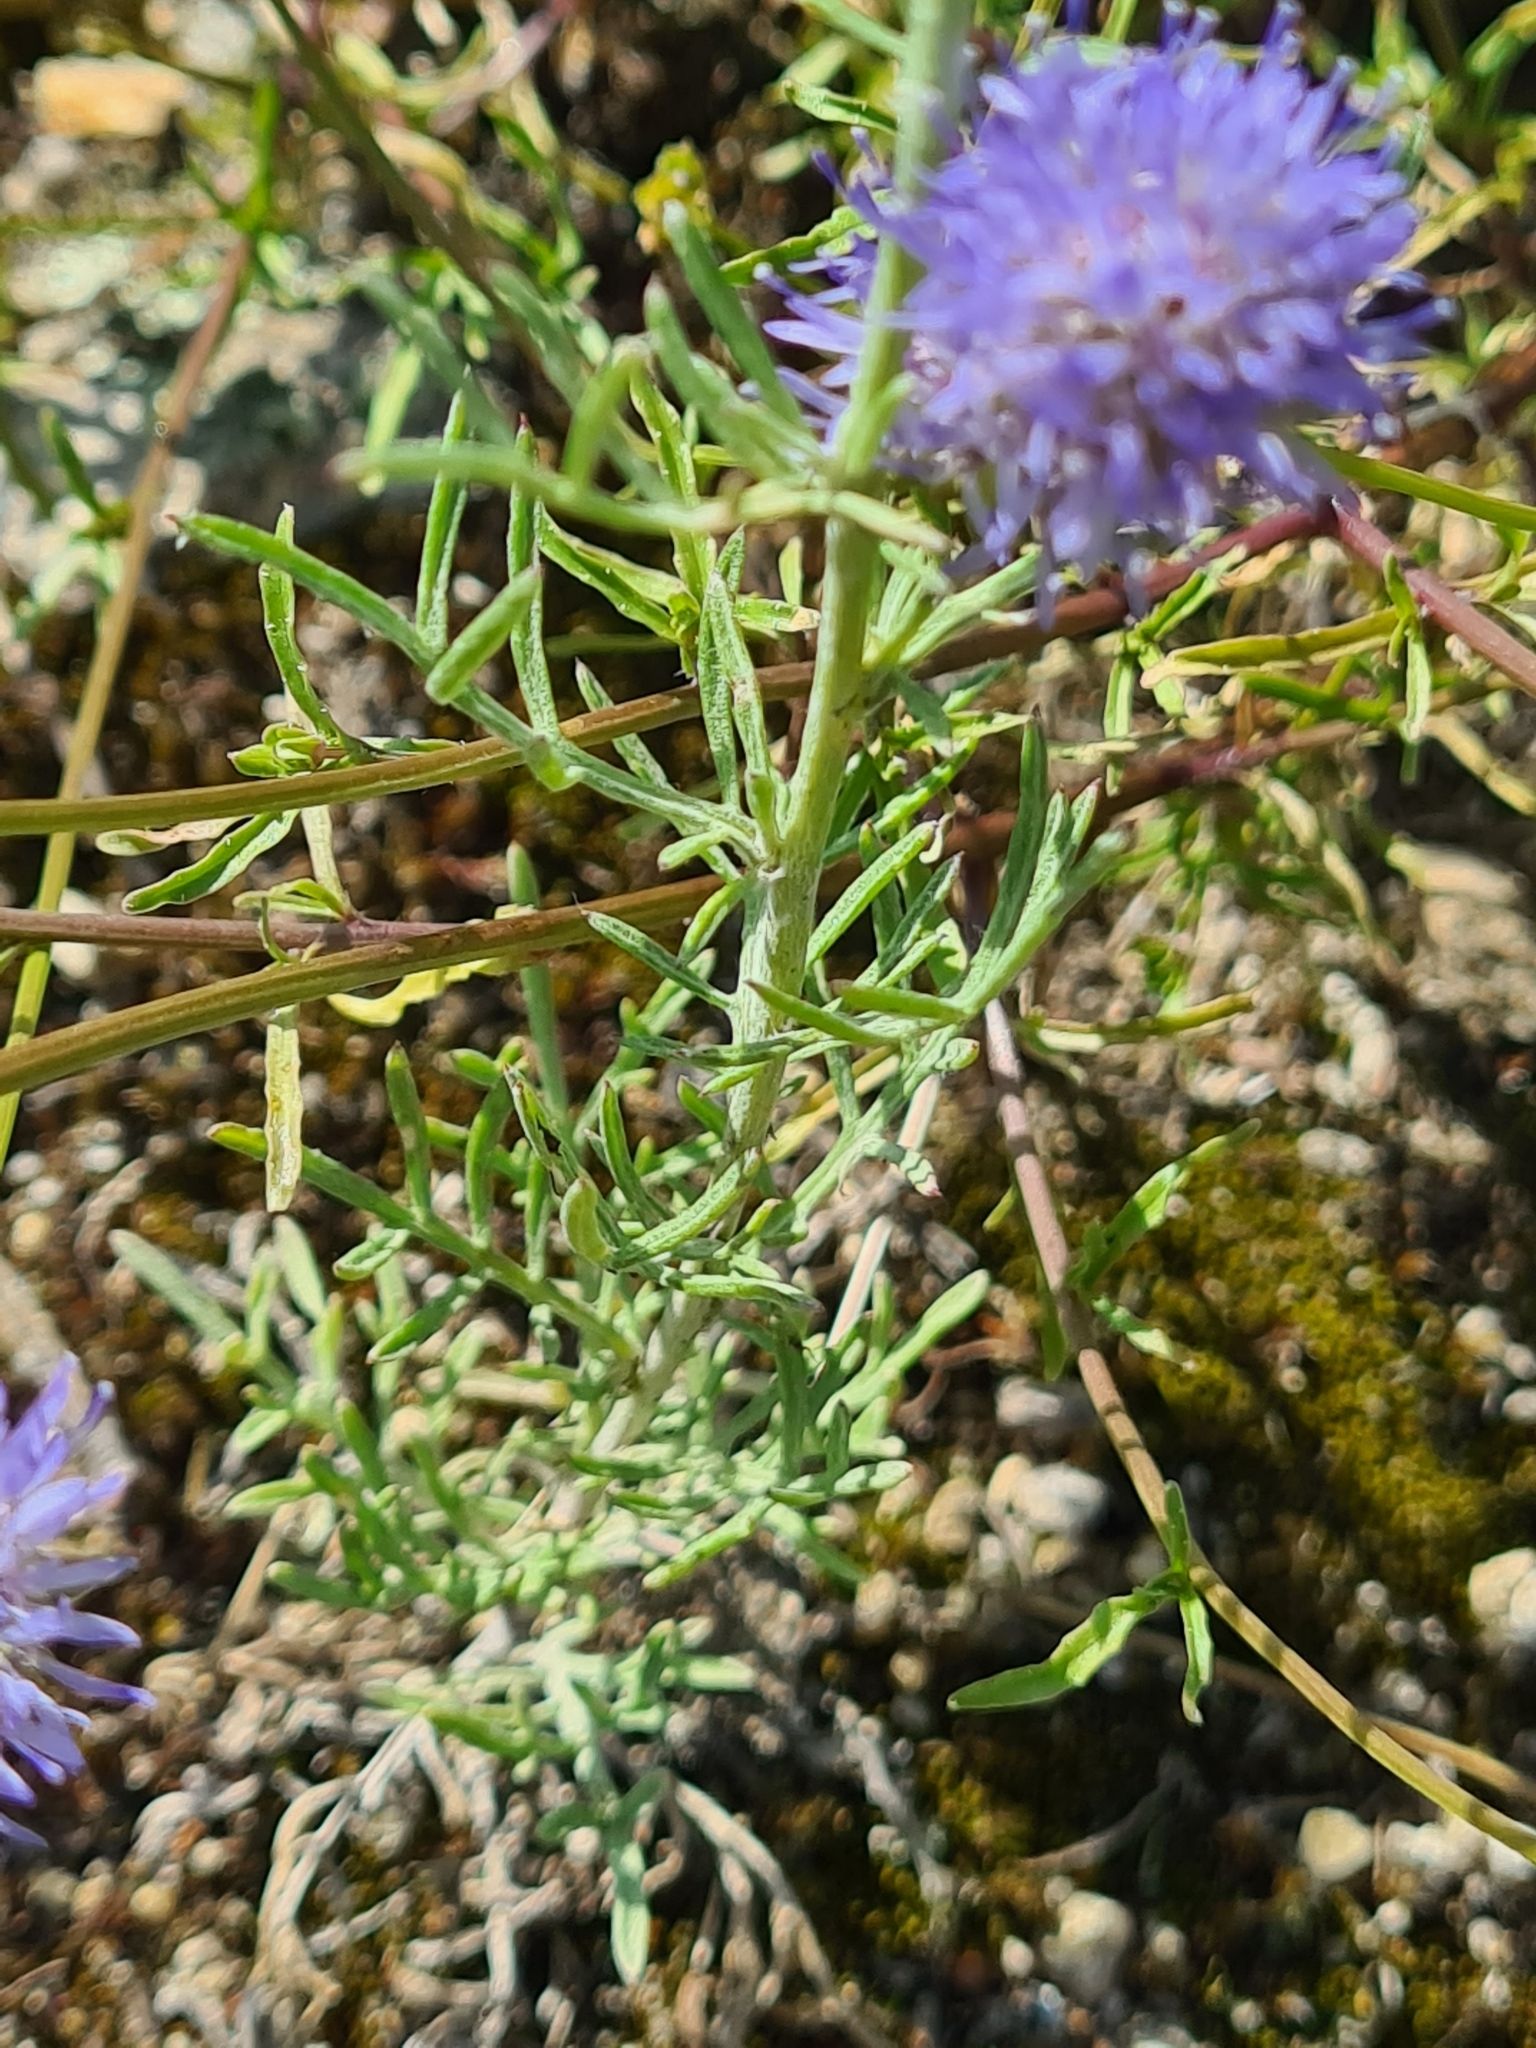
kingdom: Plantae
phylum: Tracheophyta
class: Magnoliopsida
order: Asterales
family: Campanulaceae
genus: Jasione
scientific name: Jasione montana
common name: Sheep's-bit
